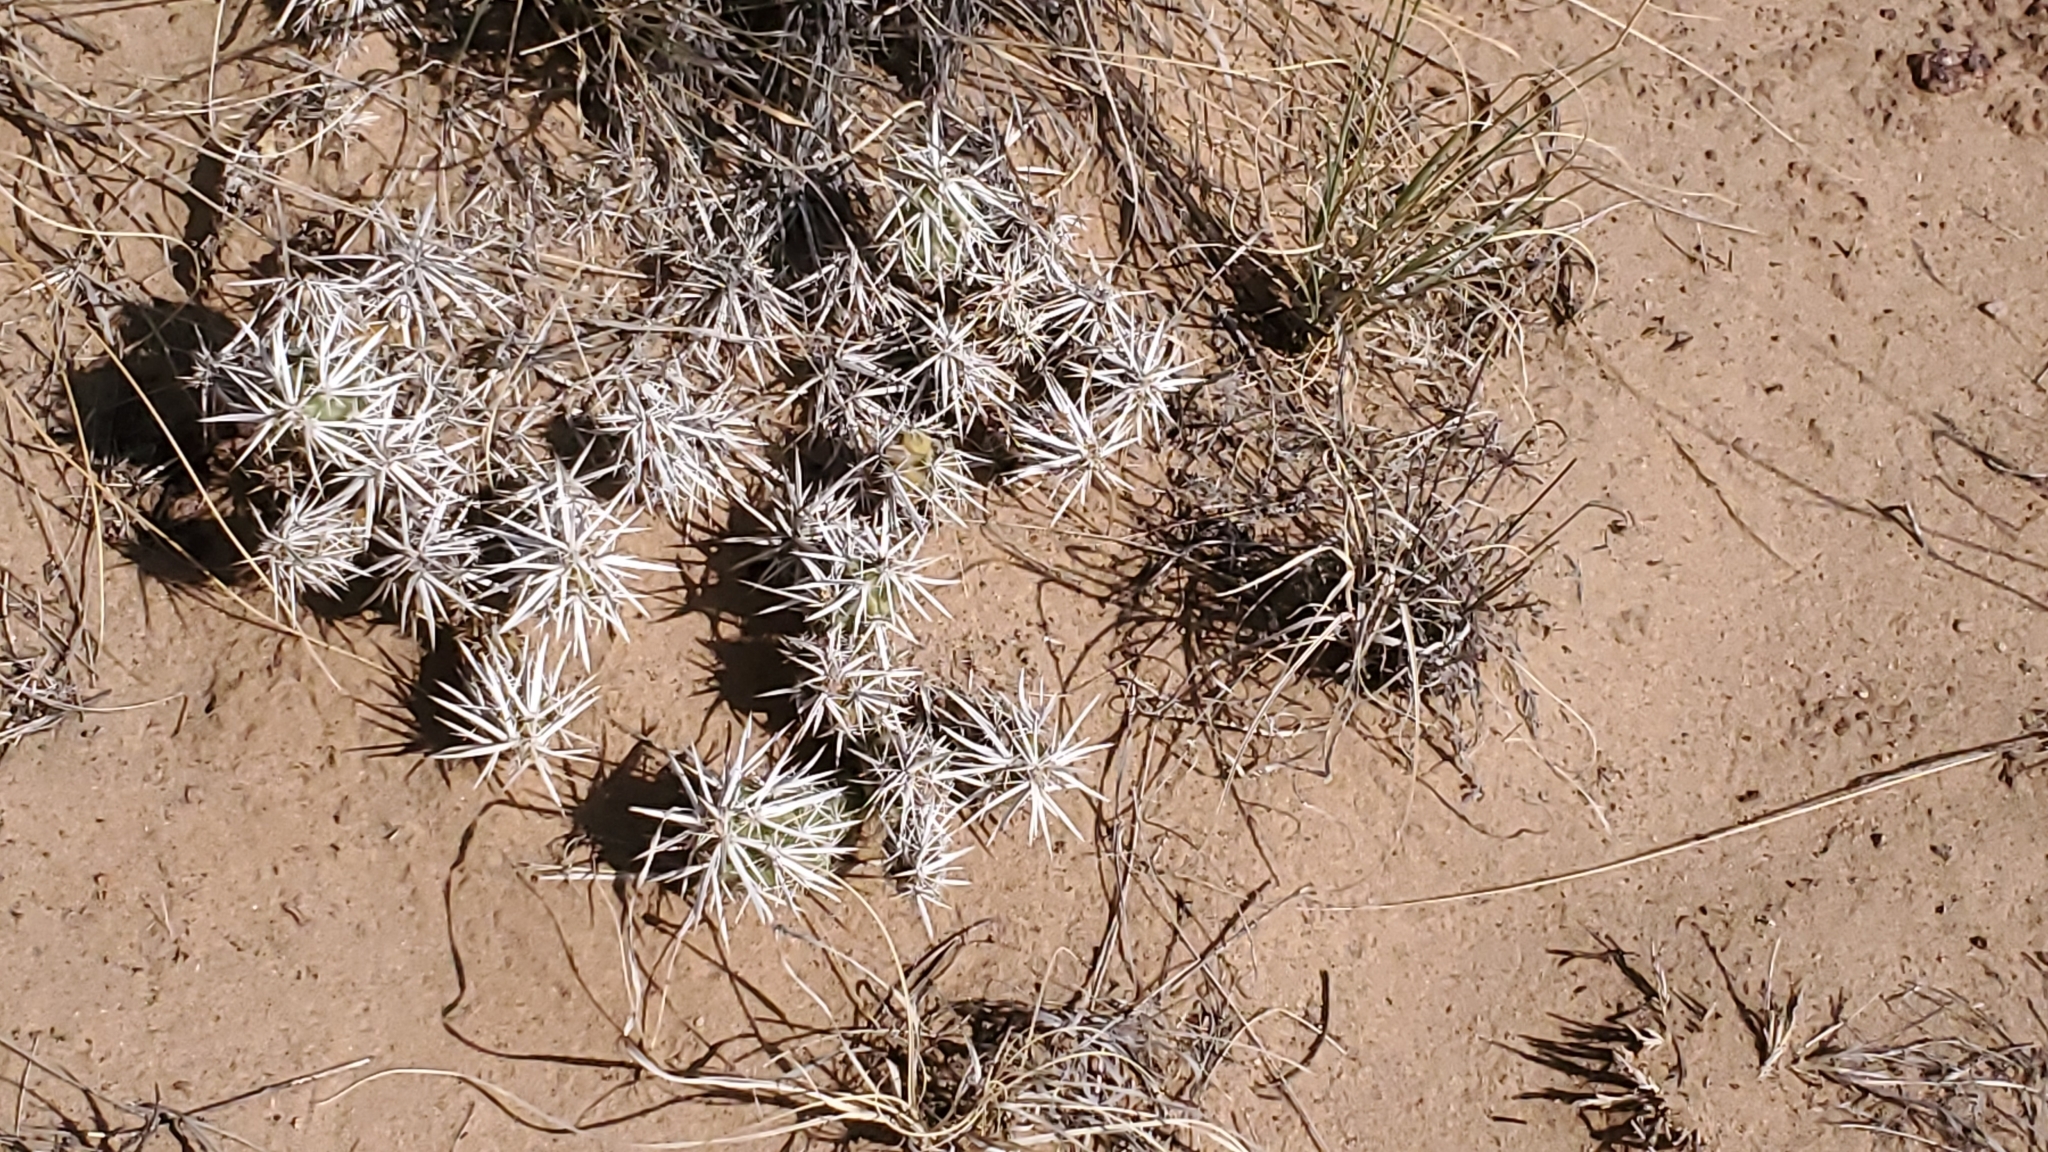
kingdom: Plantae
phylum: Tracheophyta
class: Magnoliopsida
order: Caryophyllales
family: Cactaceae
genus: Grusonia
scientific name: Grusonia clavata
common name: Club cholla
